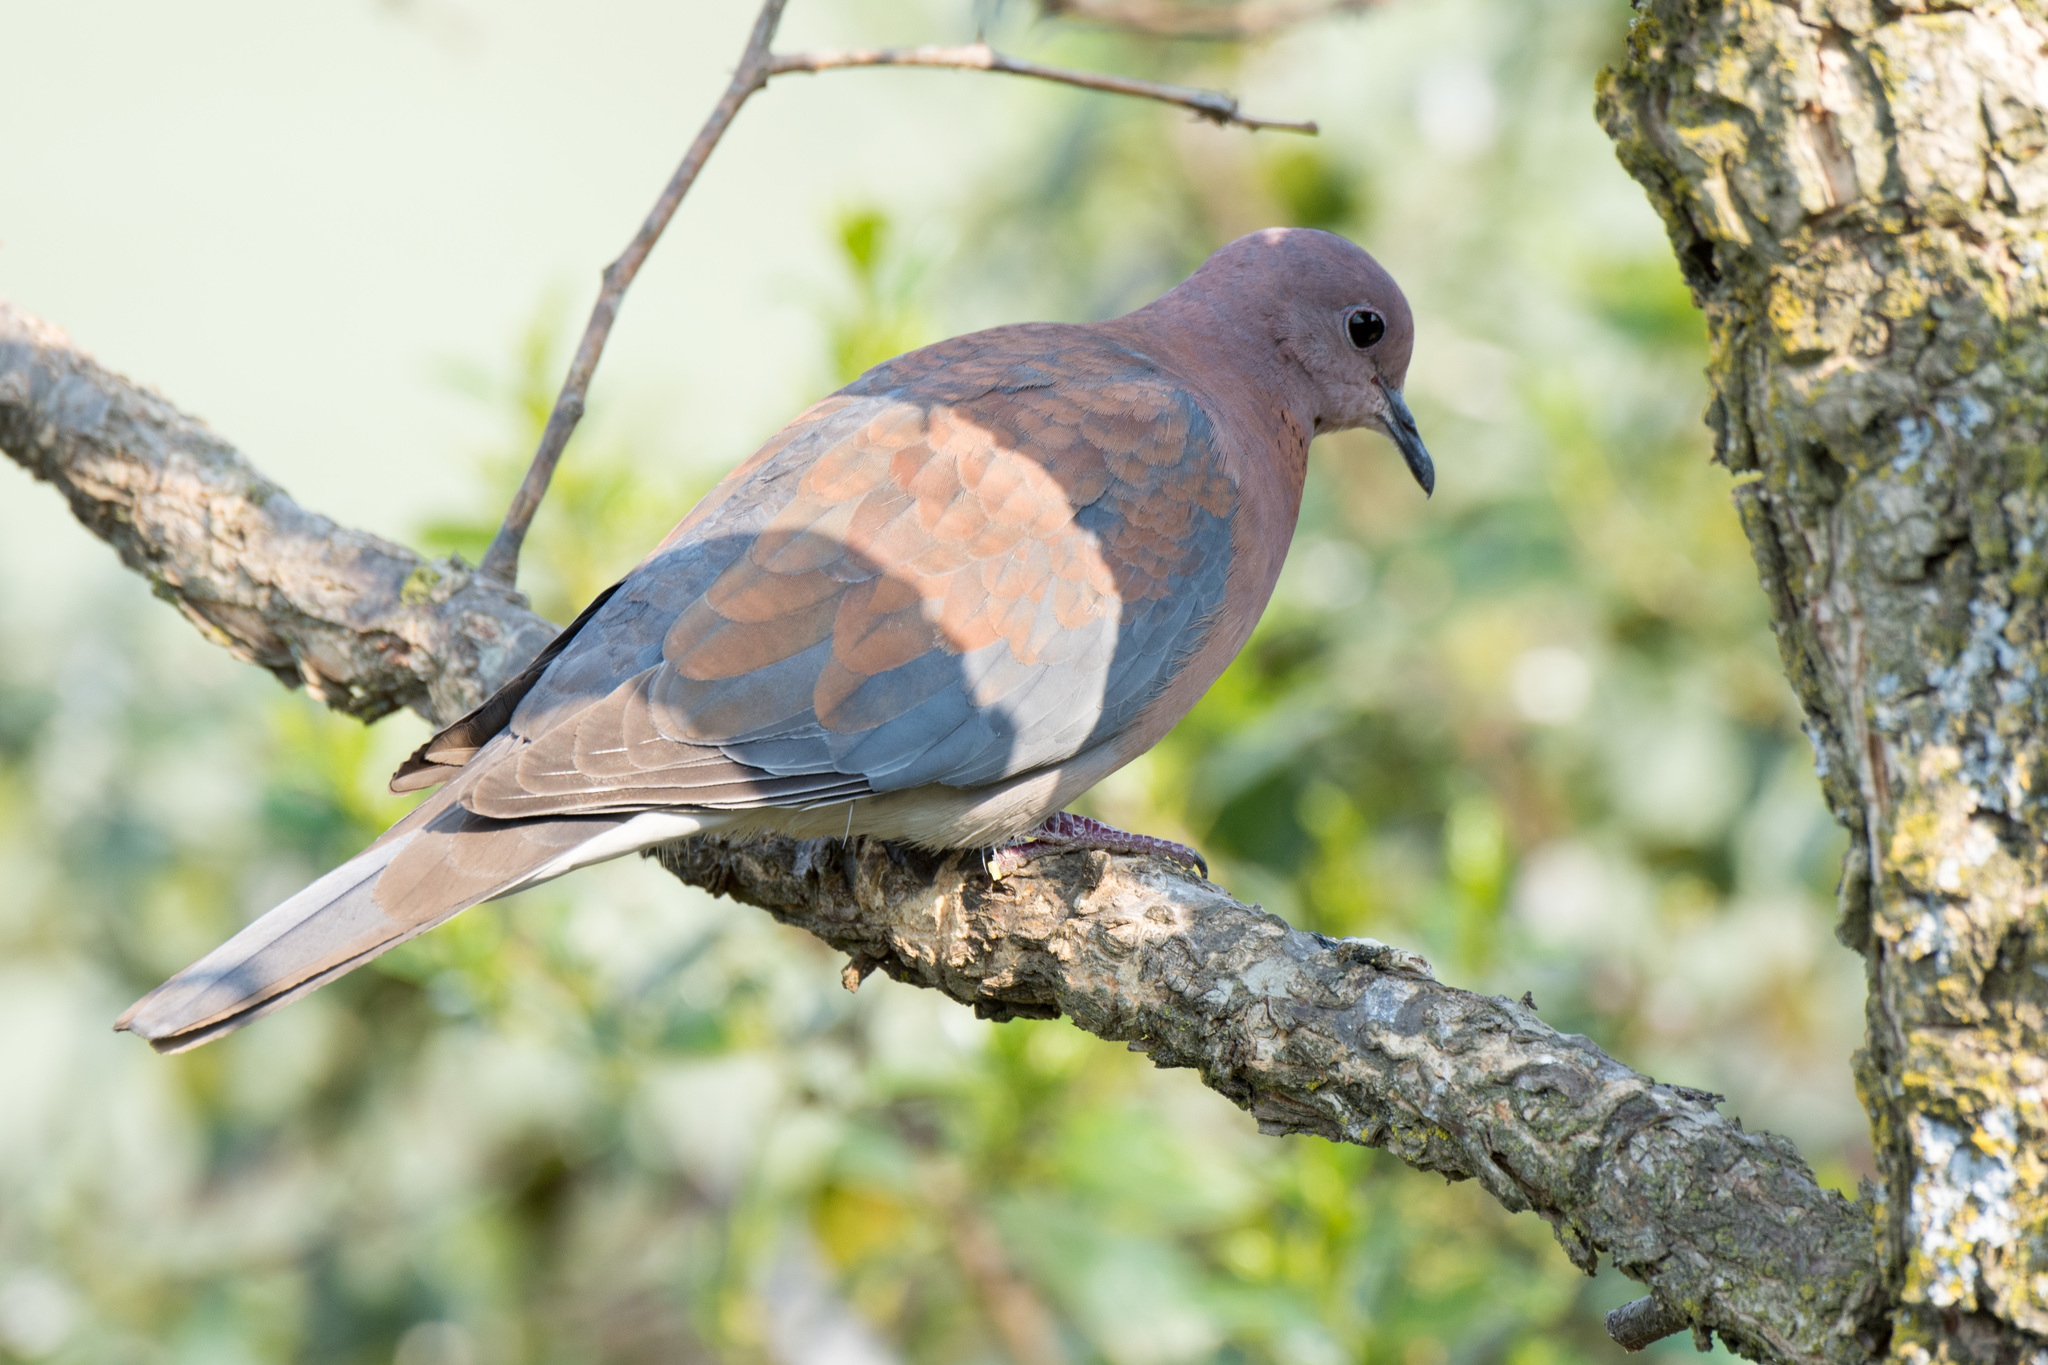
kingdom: Animalia
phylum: Chordata
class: Aves
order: Columbiformes
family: Columbidae
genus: Spilopelia
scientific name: Spilopelia senegalensis
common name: Laughing dove
